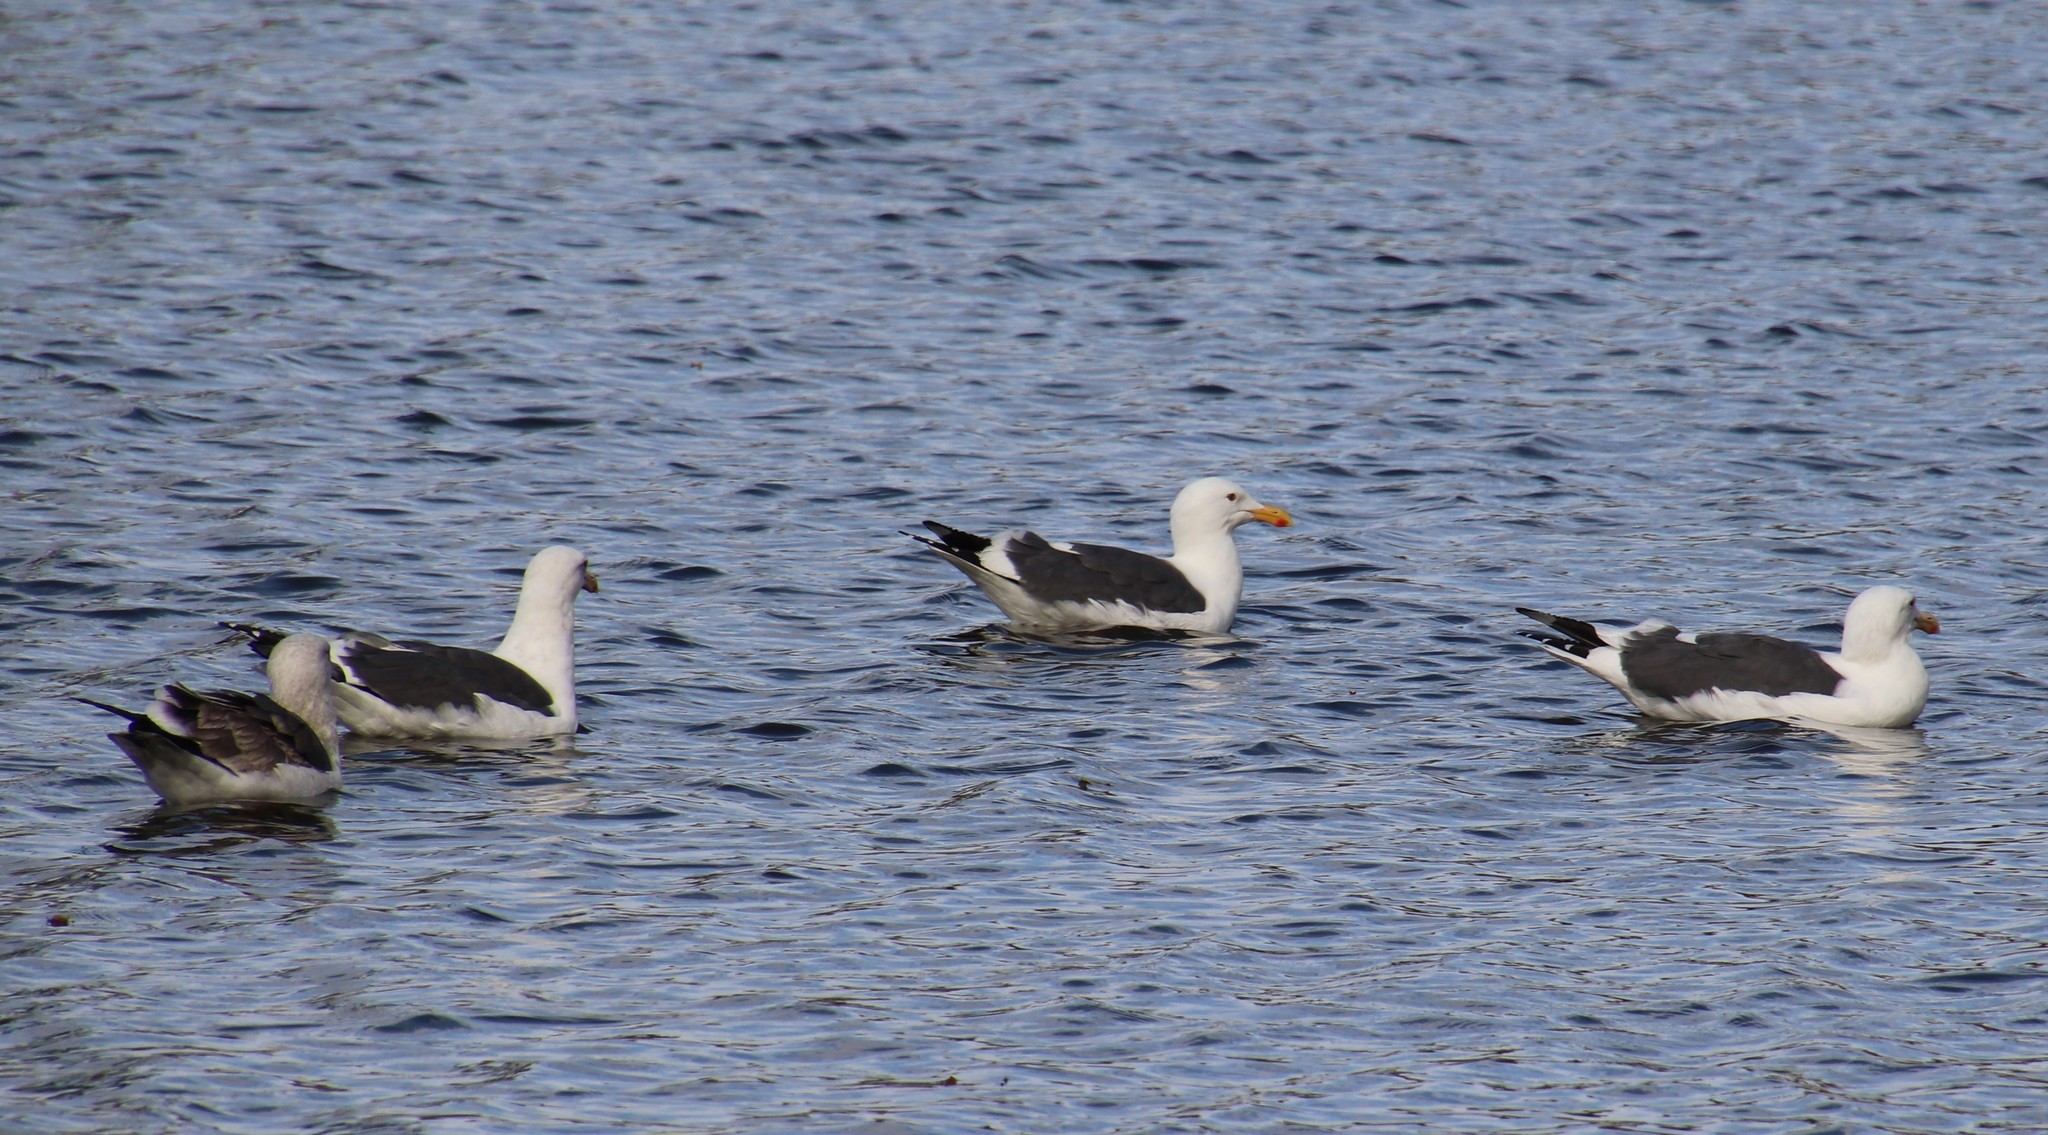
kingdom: Animalia
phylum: Chordata
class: Aves
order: Charadriiformes
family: Laridae
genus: Larus
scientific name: Larus occidentalis
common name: Western gull
